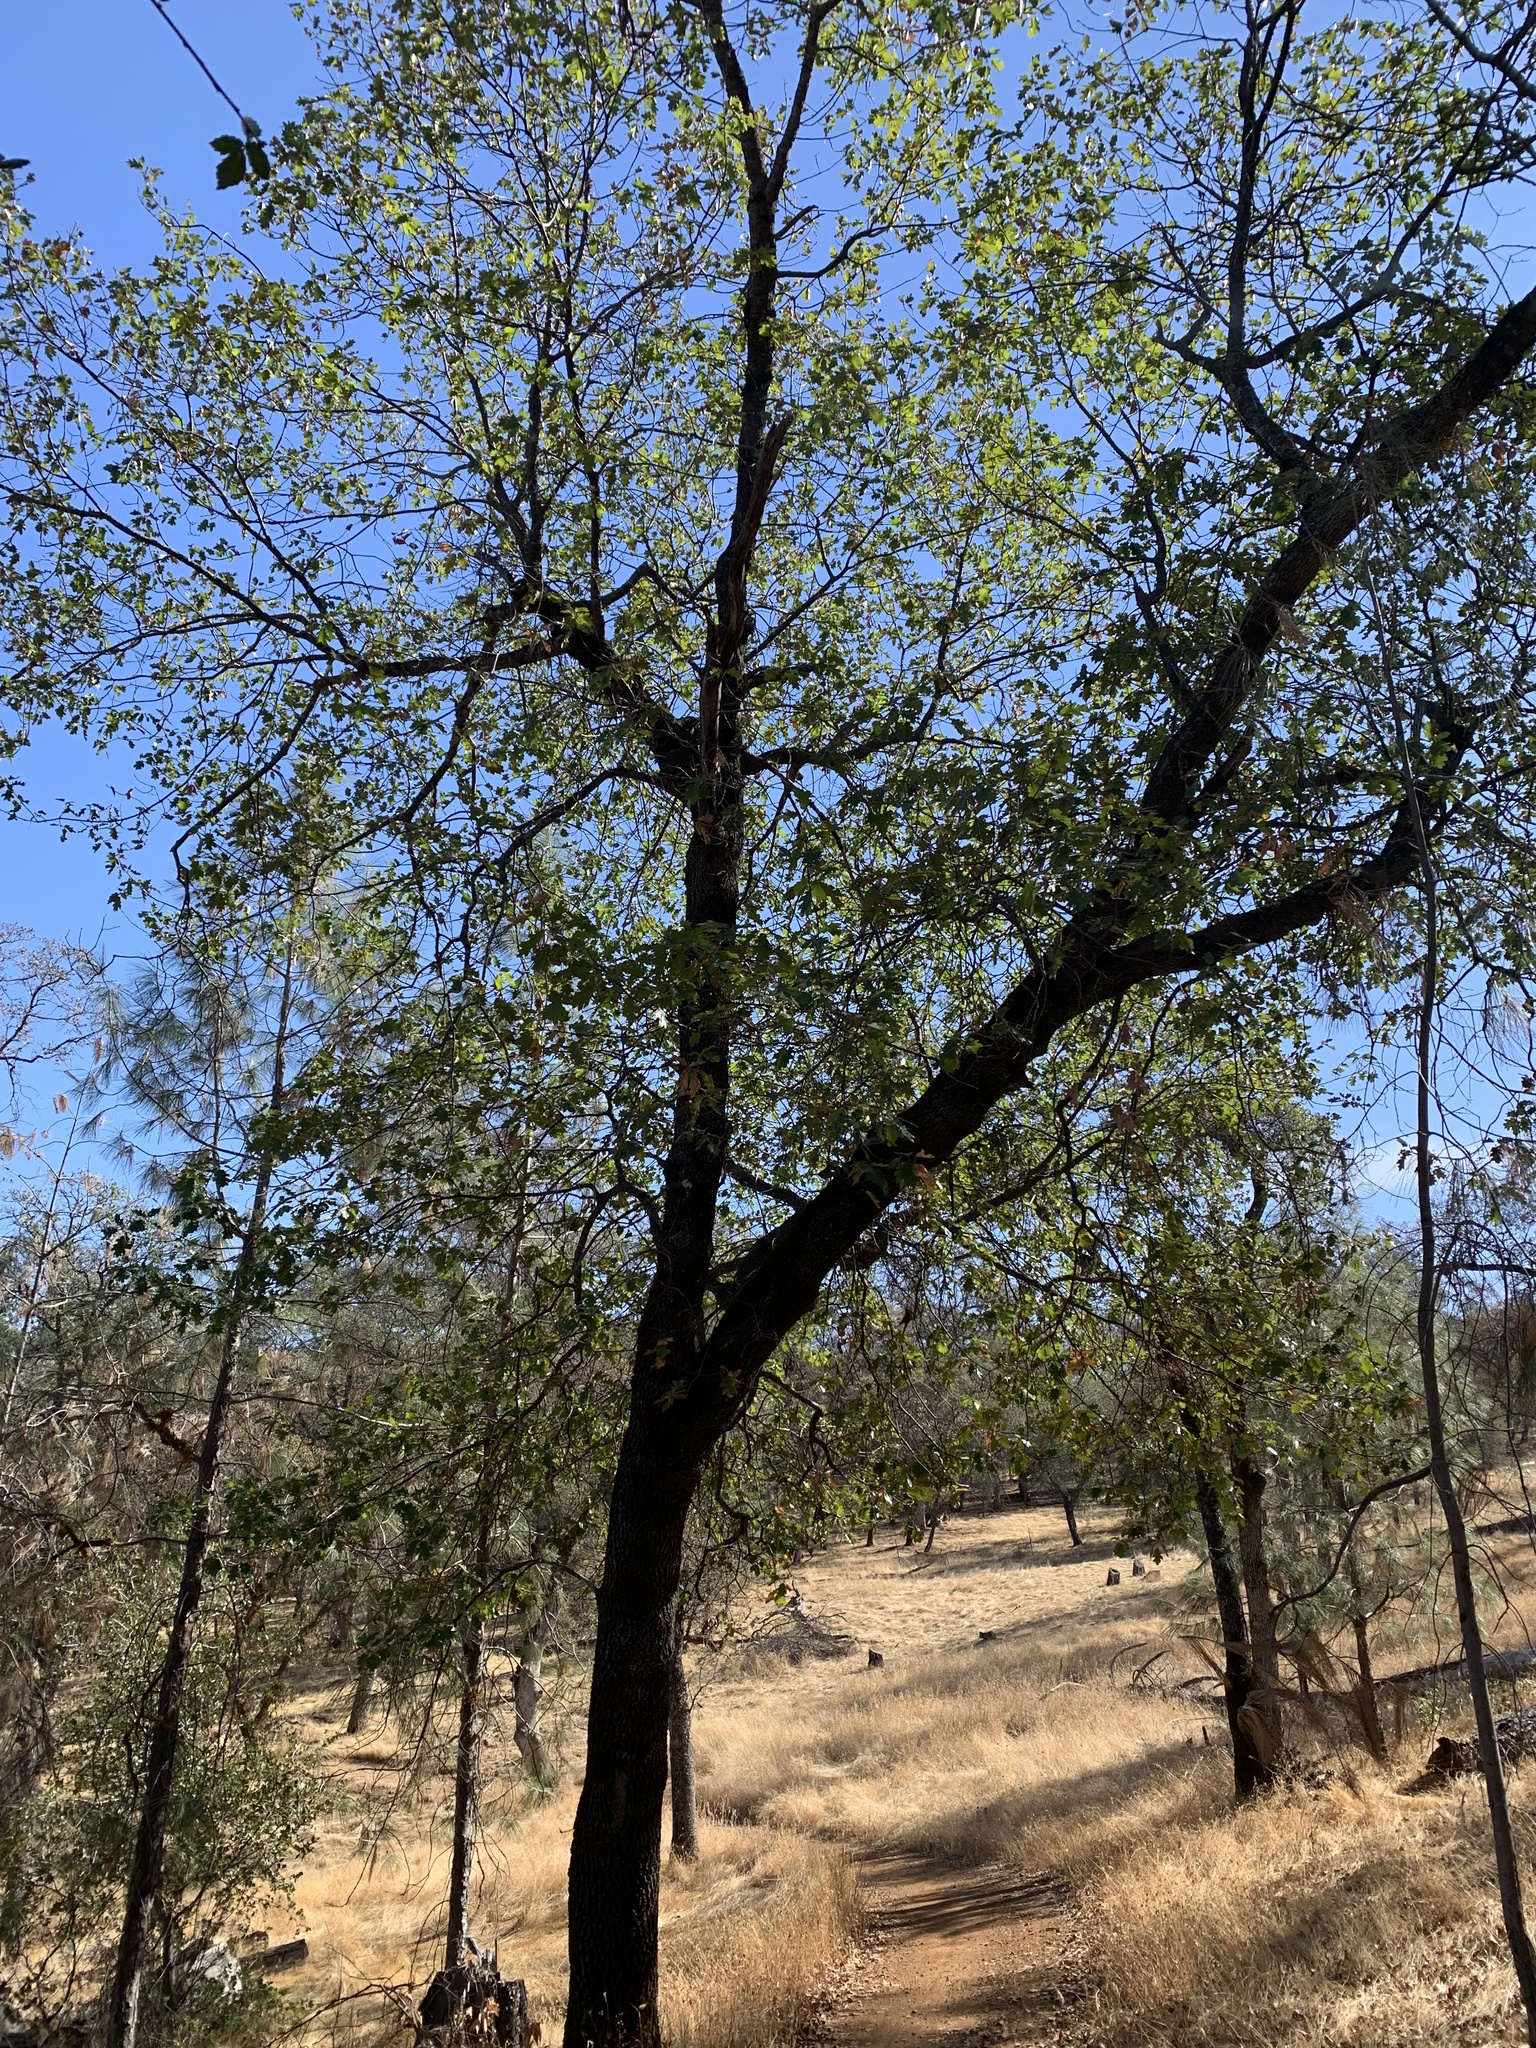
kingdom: Plantae
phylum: Tracheophyta
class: Magnoliopsida
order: Fagales
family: Fagaceae
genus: Quercus
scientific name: Quercus kelloggii
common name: California black oak
